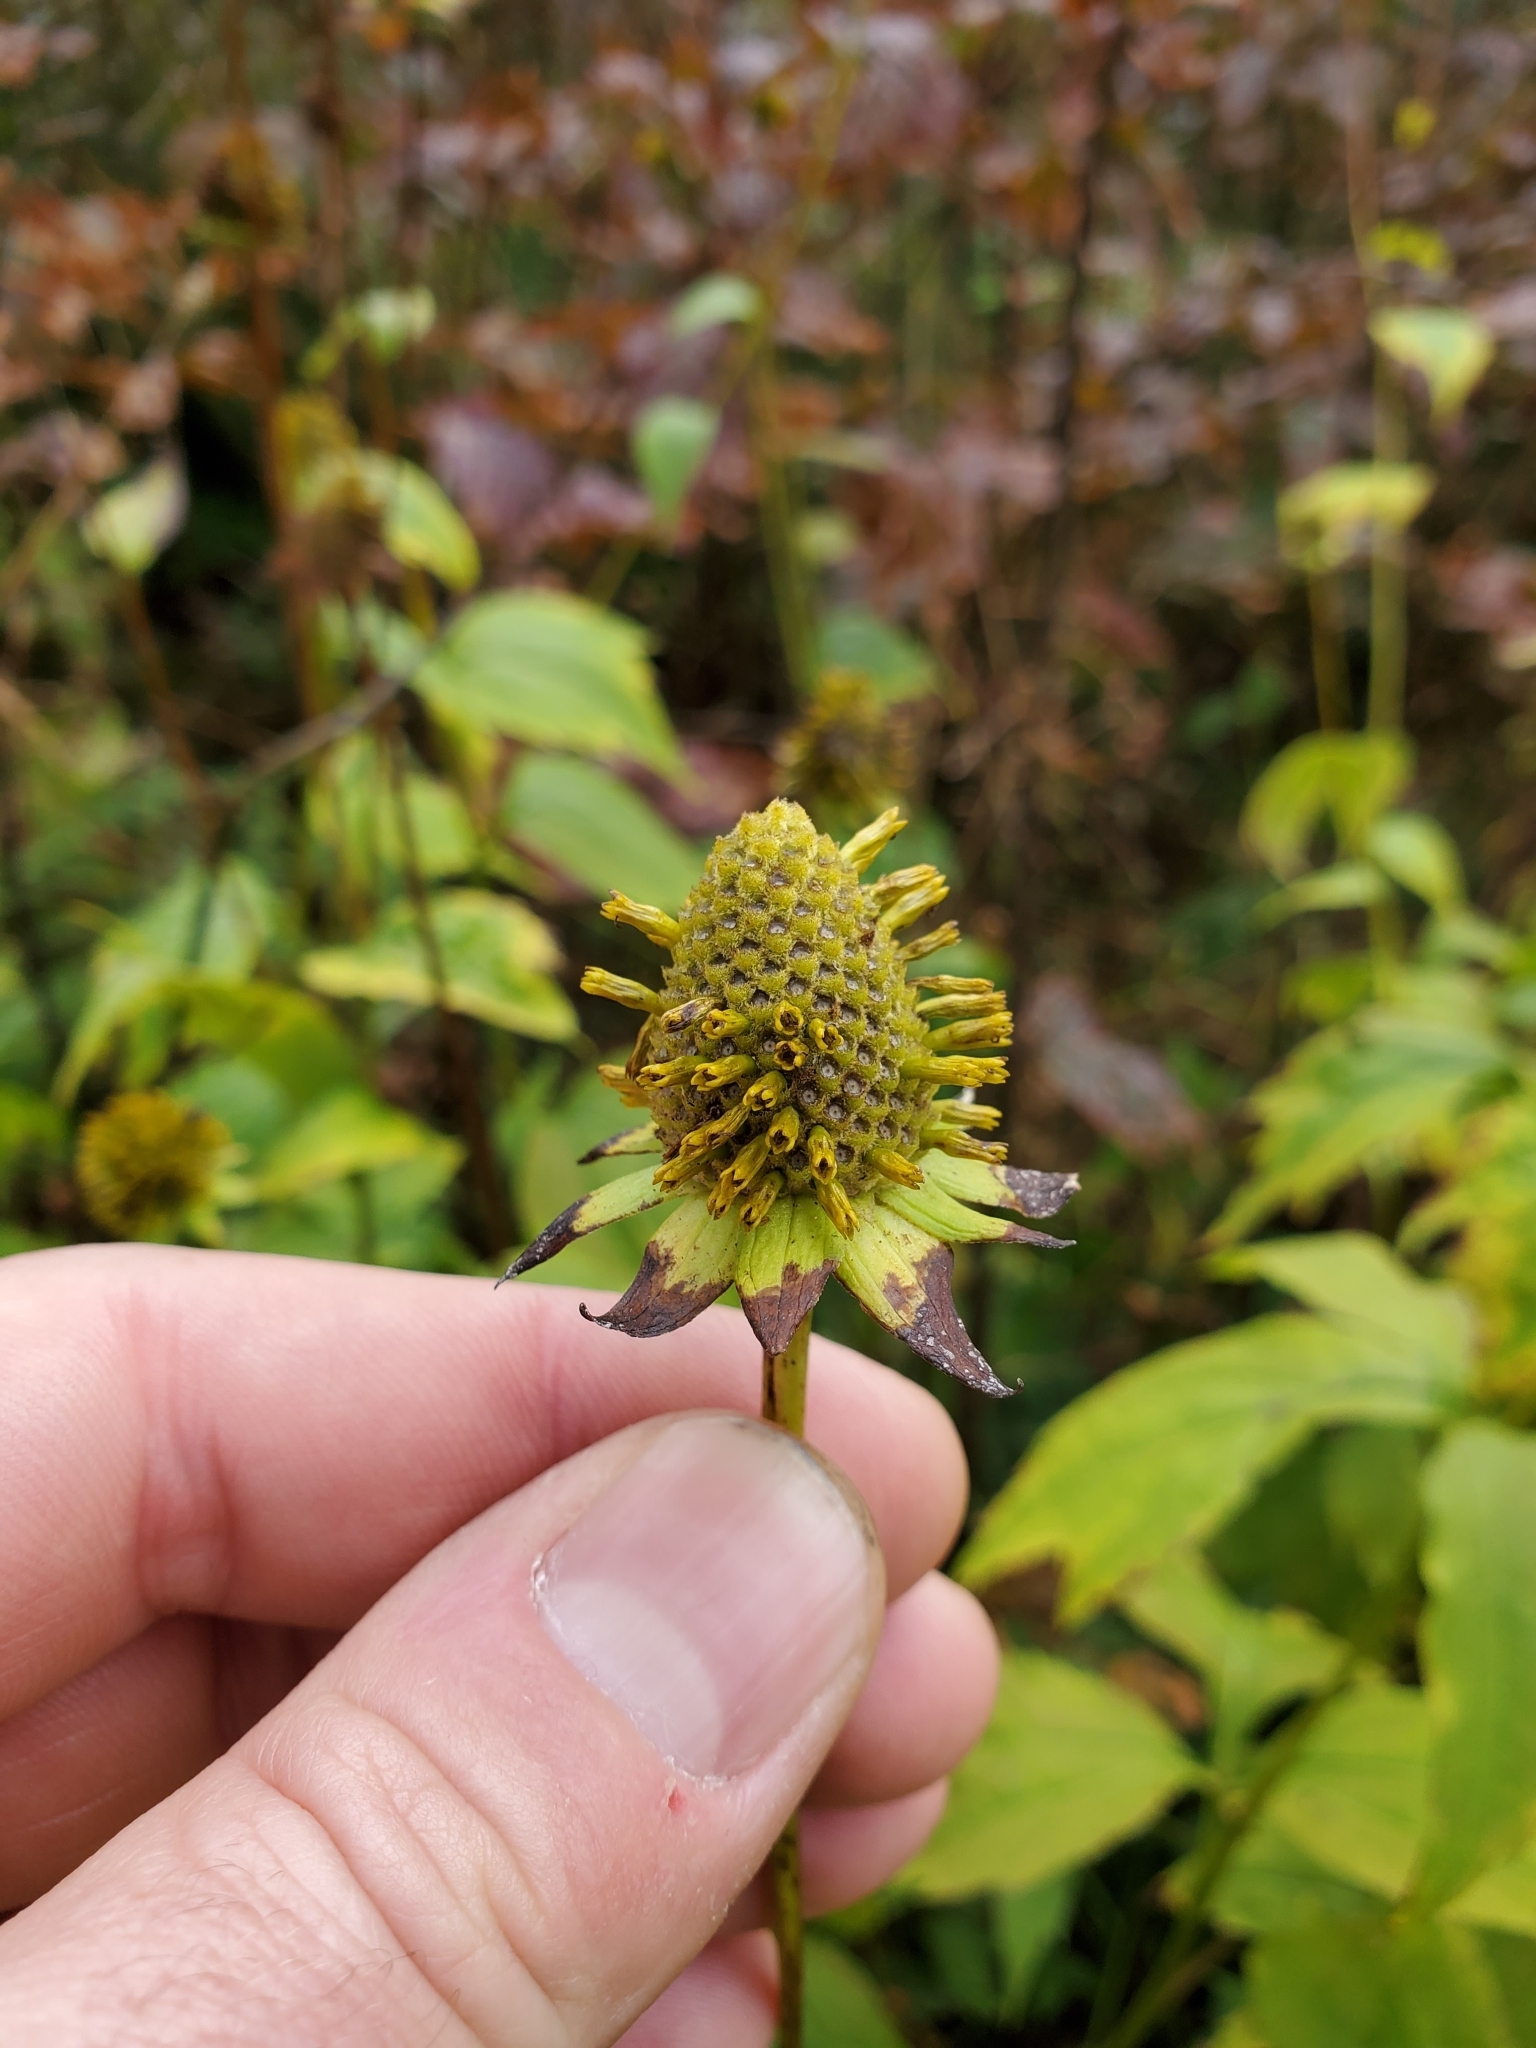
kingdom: Plantae
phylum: Tracheophyta
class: Magnoliopsida
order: Asterales
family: Asteraceae
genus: Rudbeckia
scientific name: Rudbeckia laciniata
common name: Coneflower
